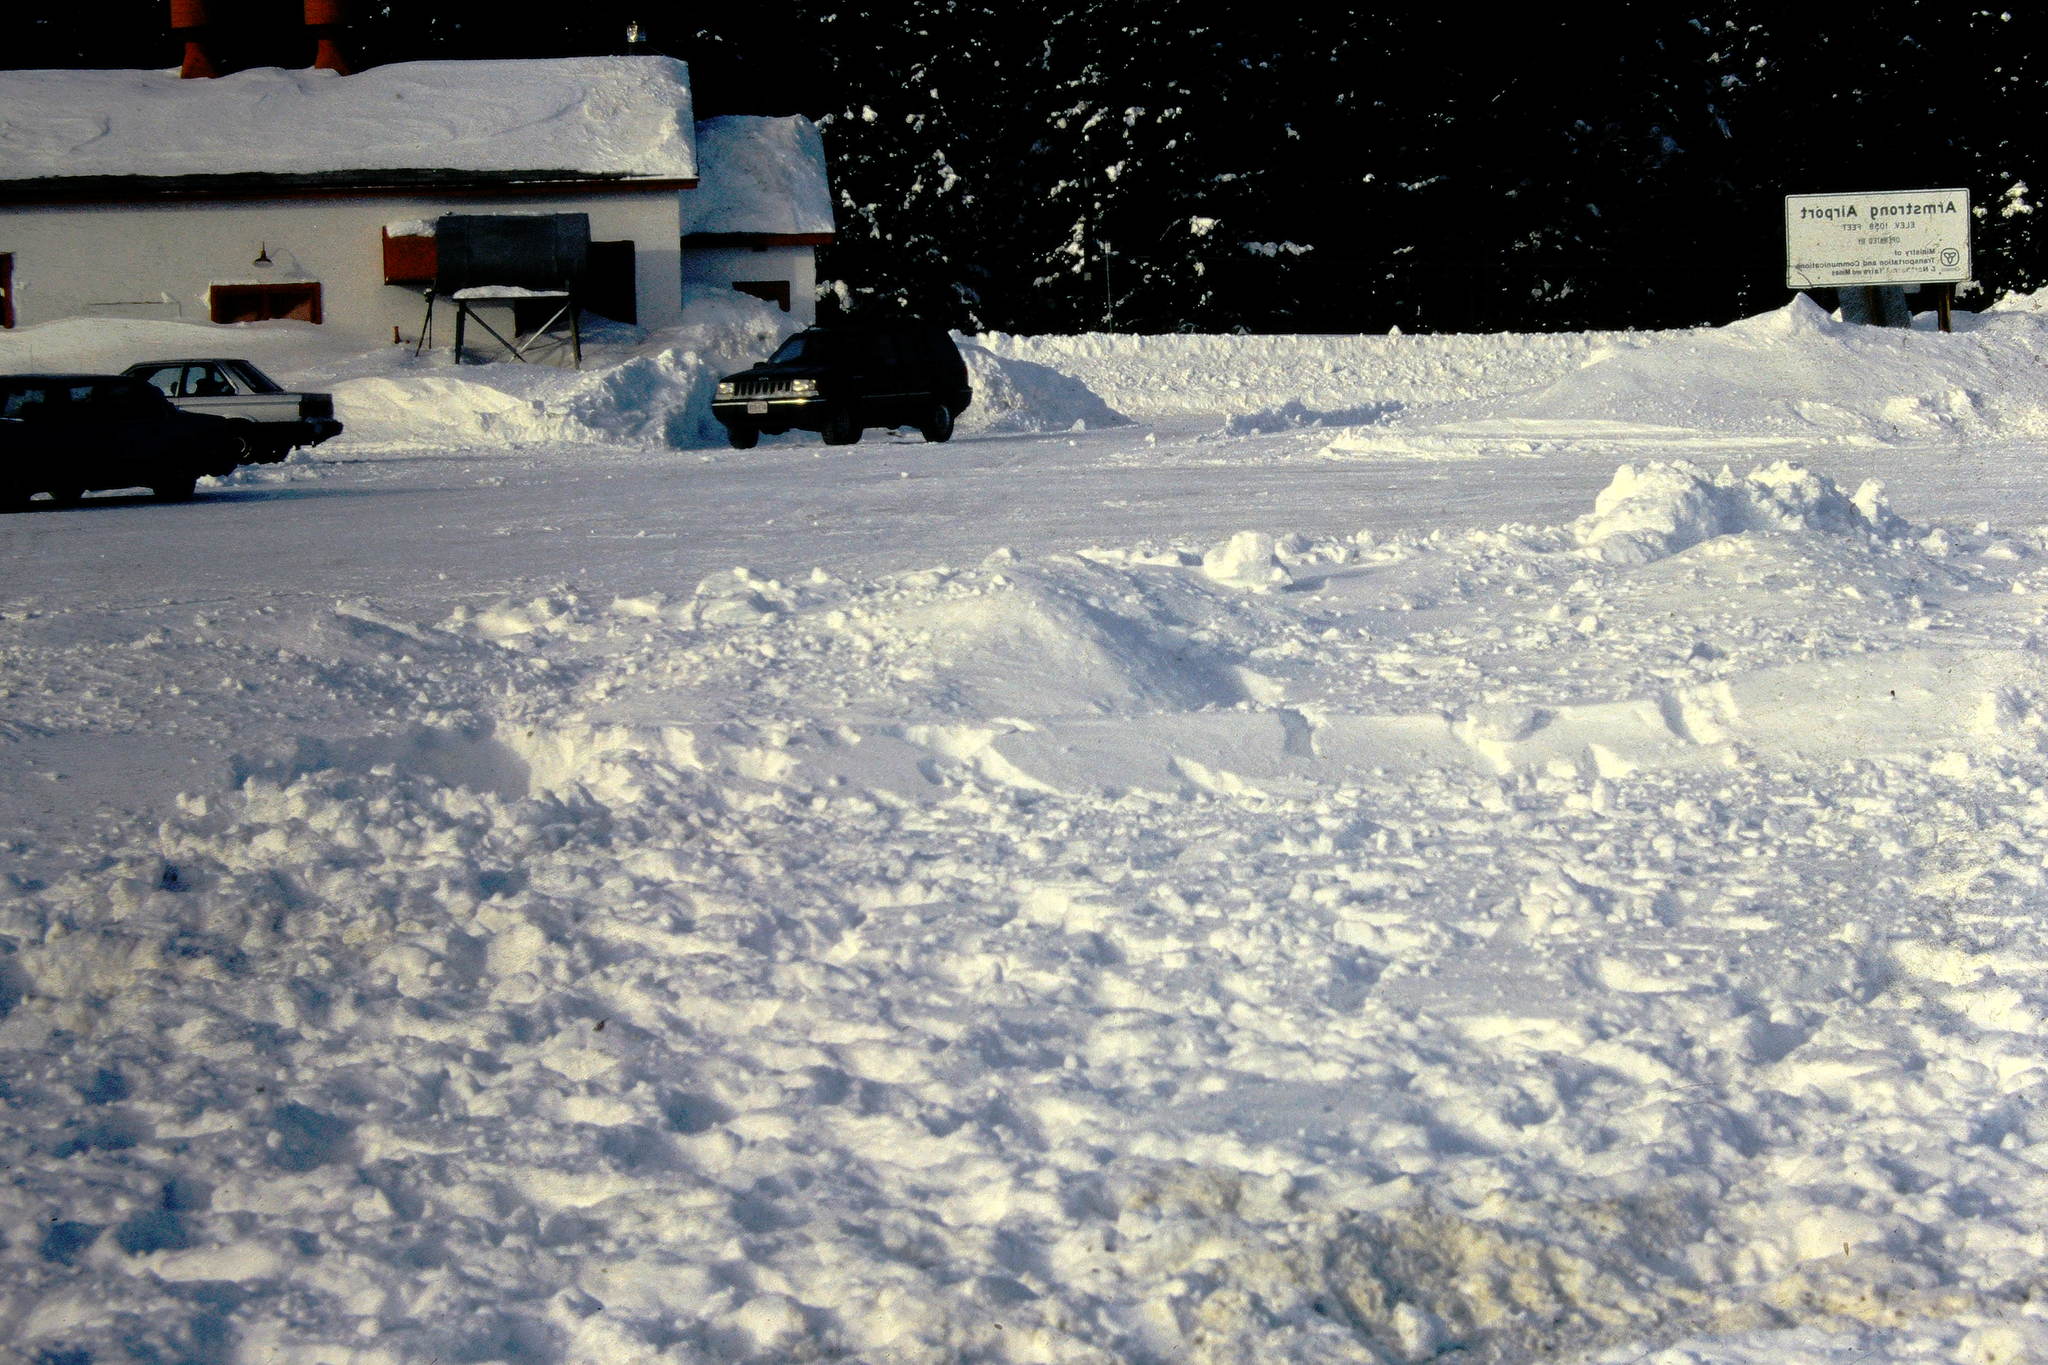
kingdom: Animalia
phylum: Chordata
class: Mammalia
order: Artiodactyla
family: Cervidae
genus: Rangifer
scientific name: Rangifer tarandus
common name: Reindeer
